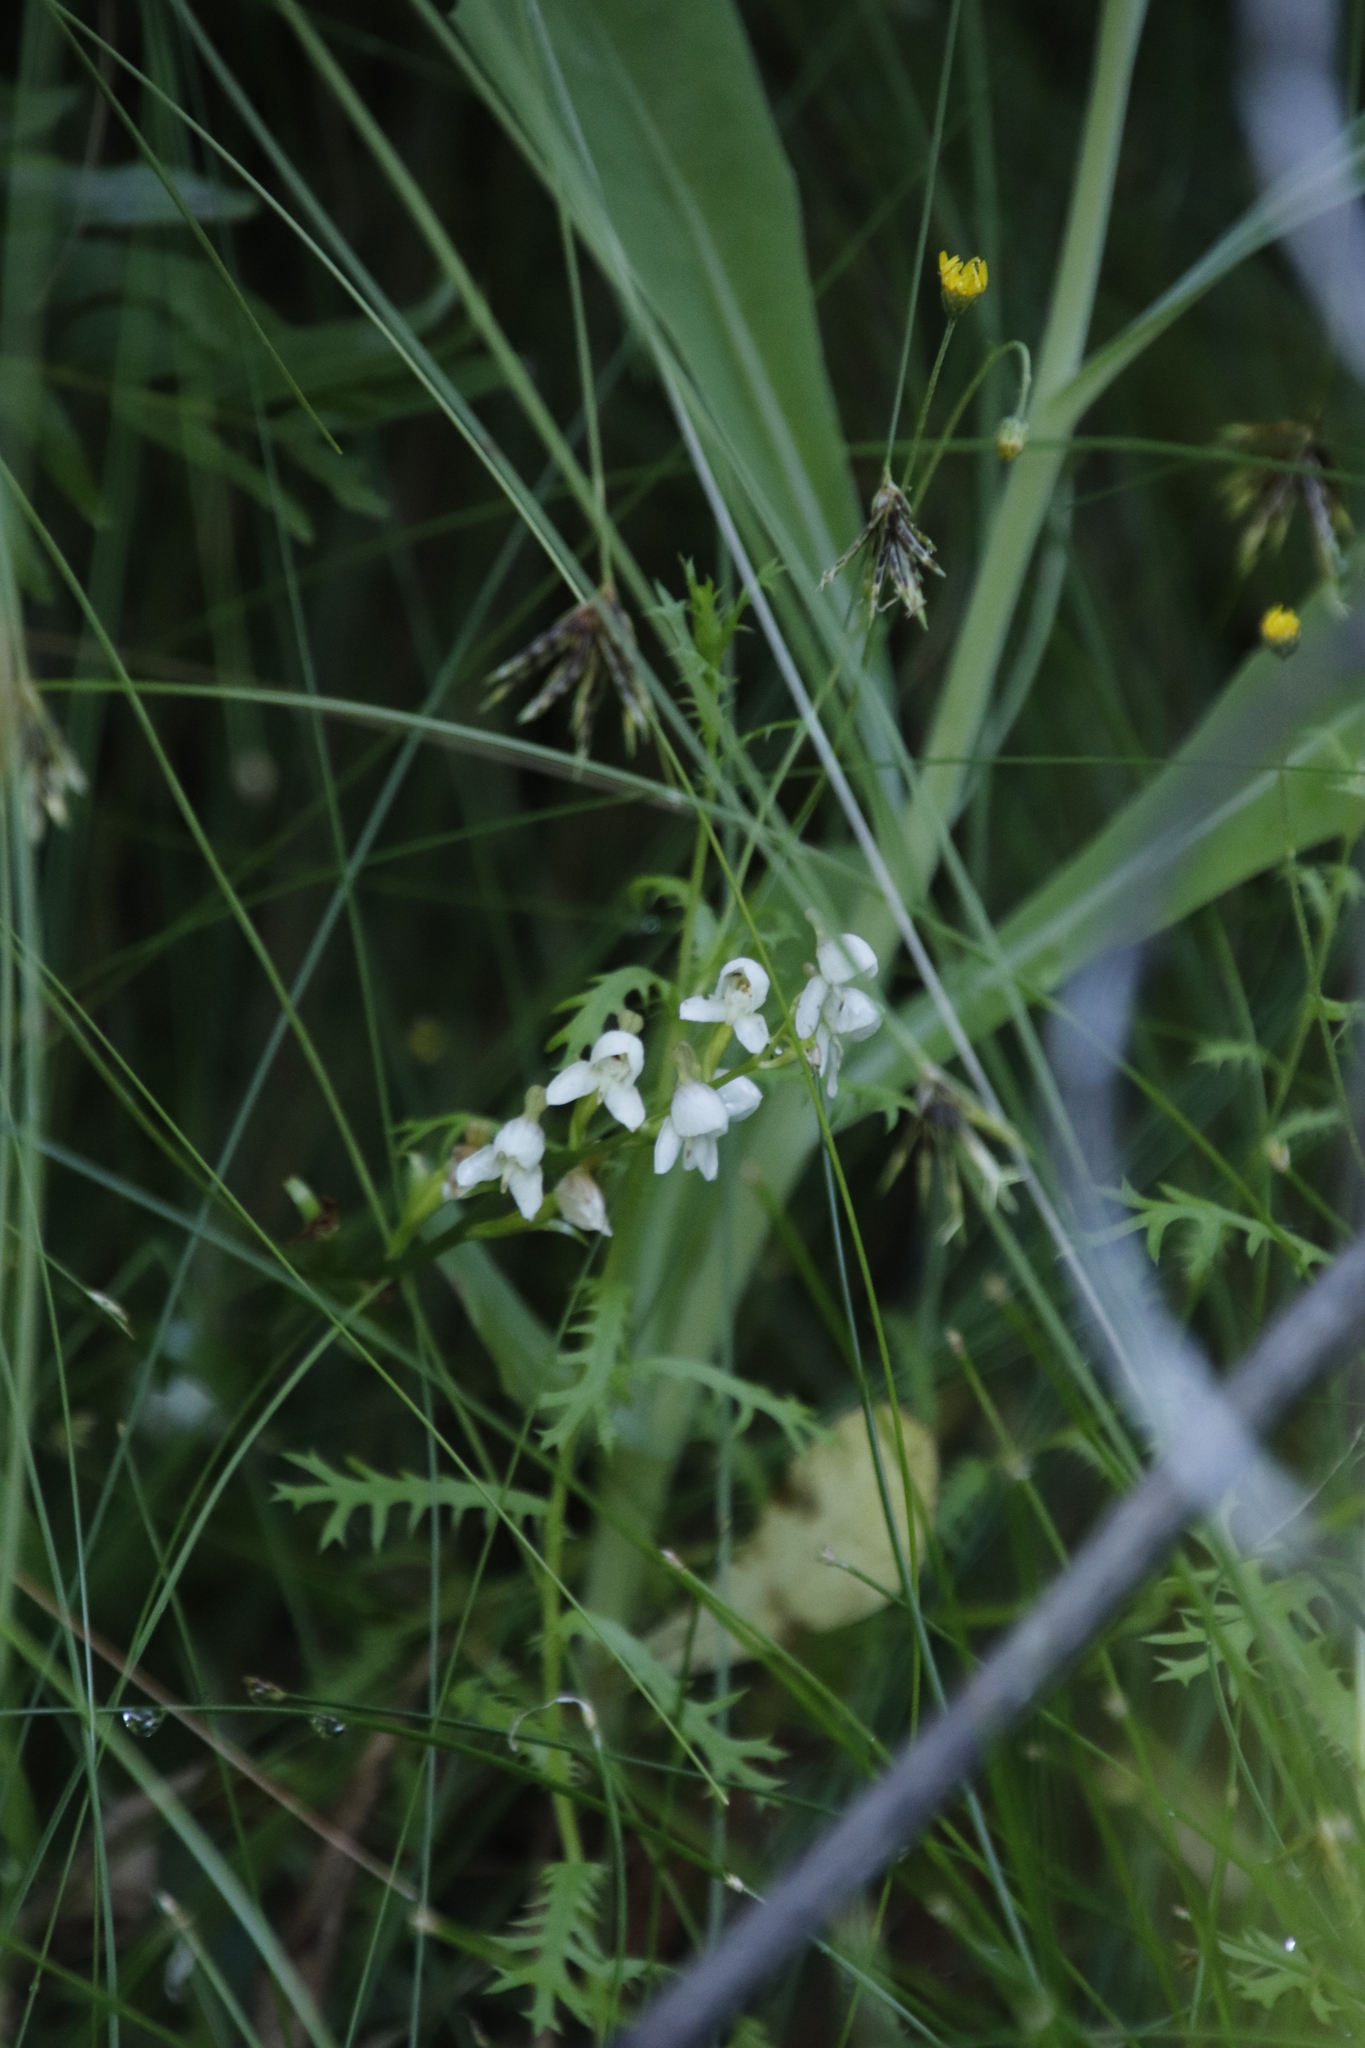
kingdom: Plantae
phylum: Tracheophyta
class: Liliopsida
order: Asparagales
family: Orchidaceae
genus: Disa
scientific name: Disa uncinata
